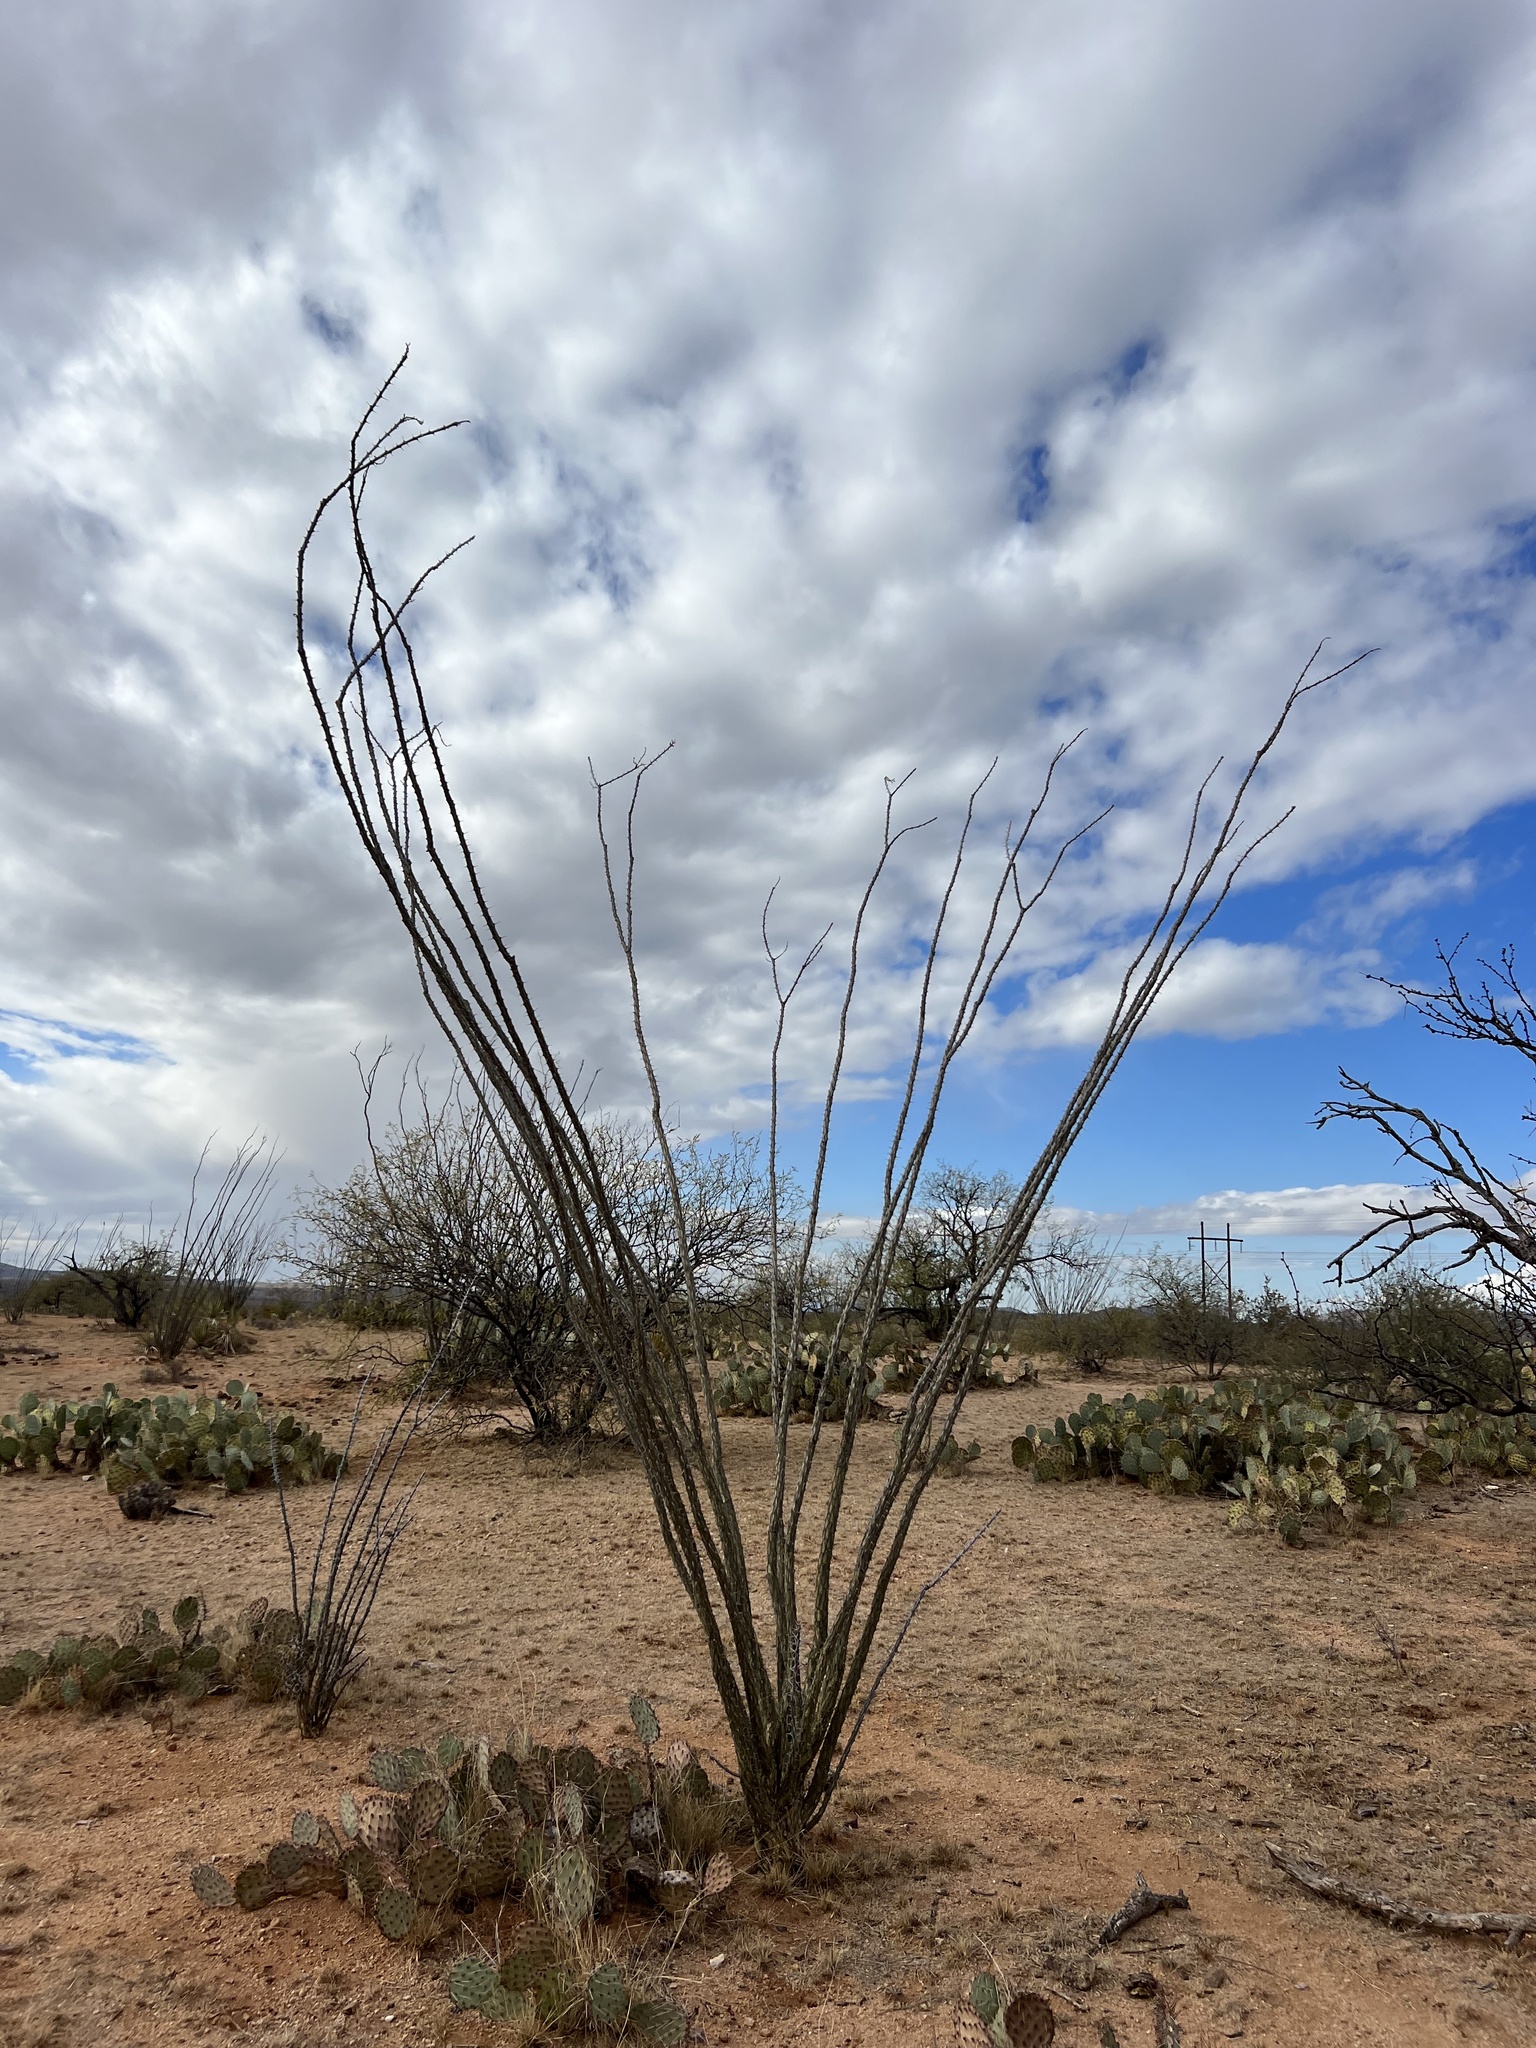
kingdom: Plantae
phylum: Tracheophyta
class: Magnoliopsida
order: Ericales
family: Fouquieriaceae
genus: Fouquieria
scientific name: Fouquieria splendens
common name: Vine-cactus
